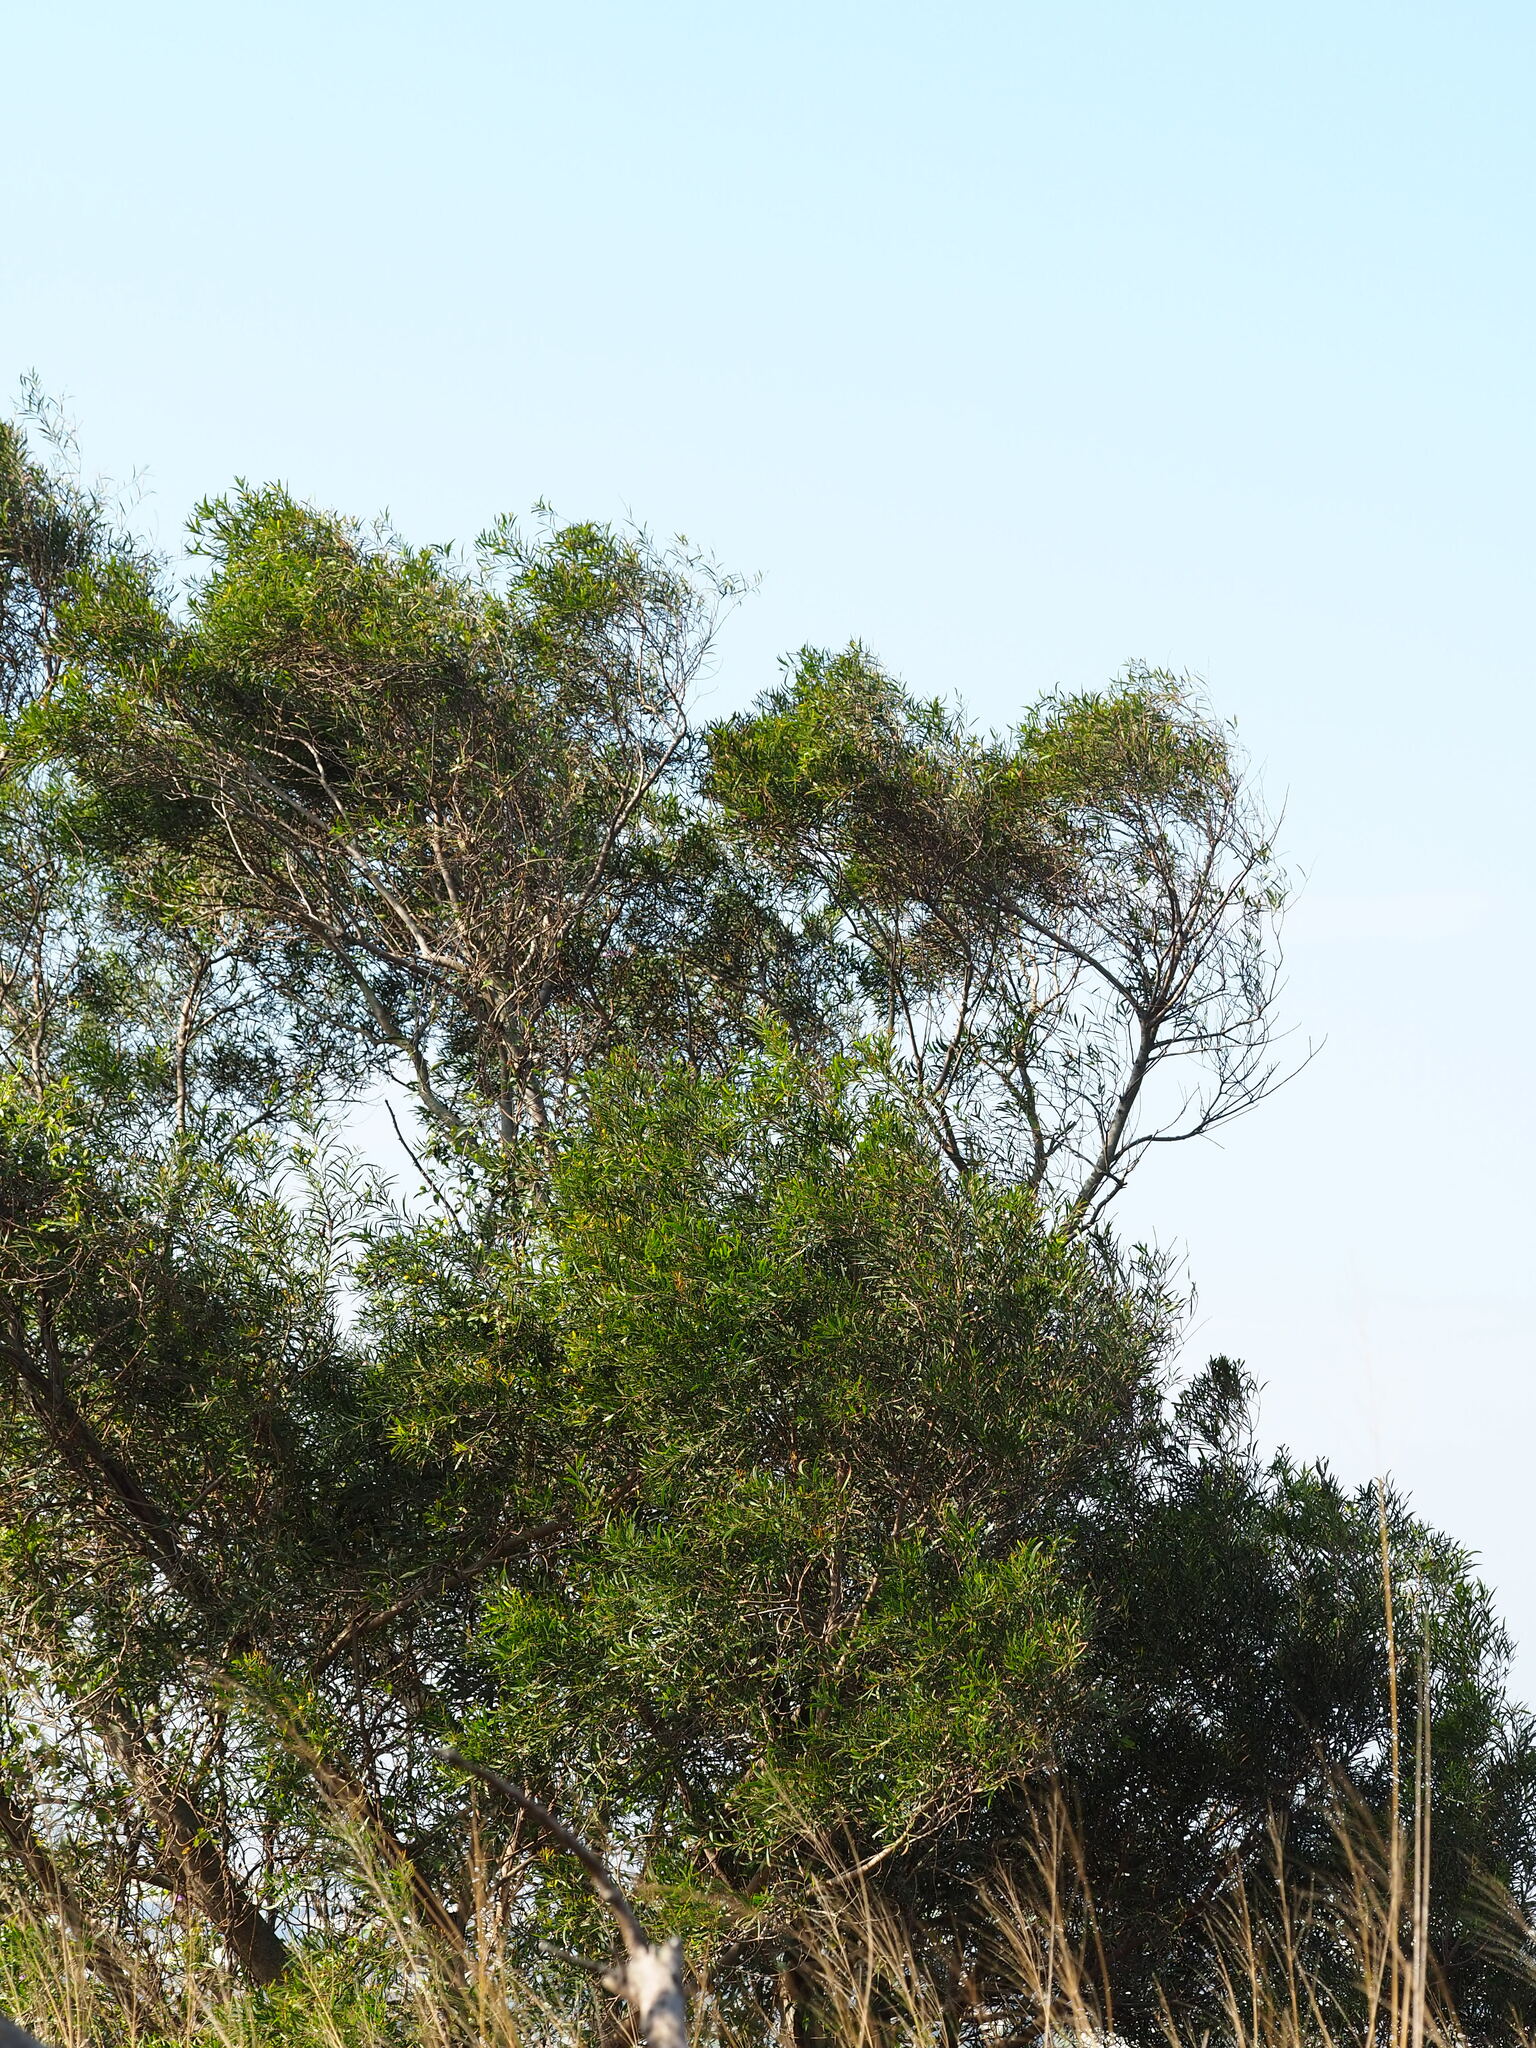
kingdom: Plantae
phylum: Tracheophyta
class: Magnoliopsida
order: Fabales
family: Fabaceae
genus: Acacia
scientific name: Acacia confusa
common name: Formosan koa
